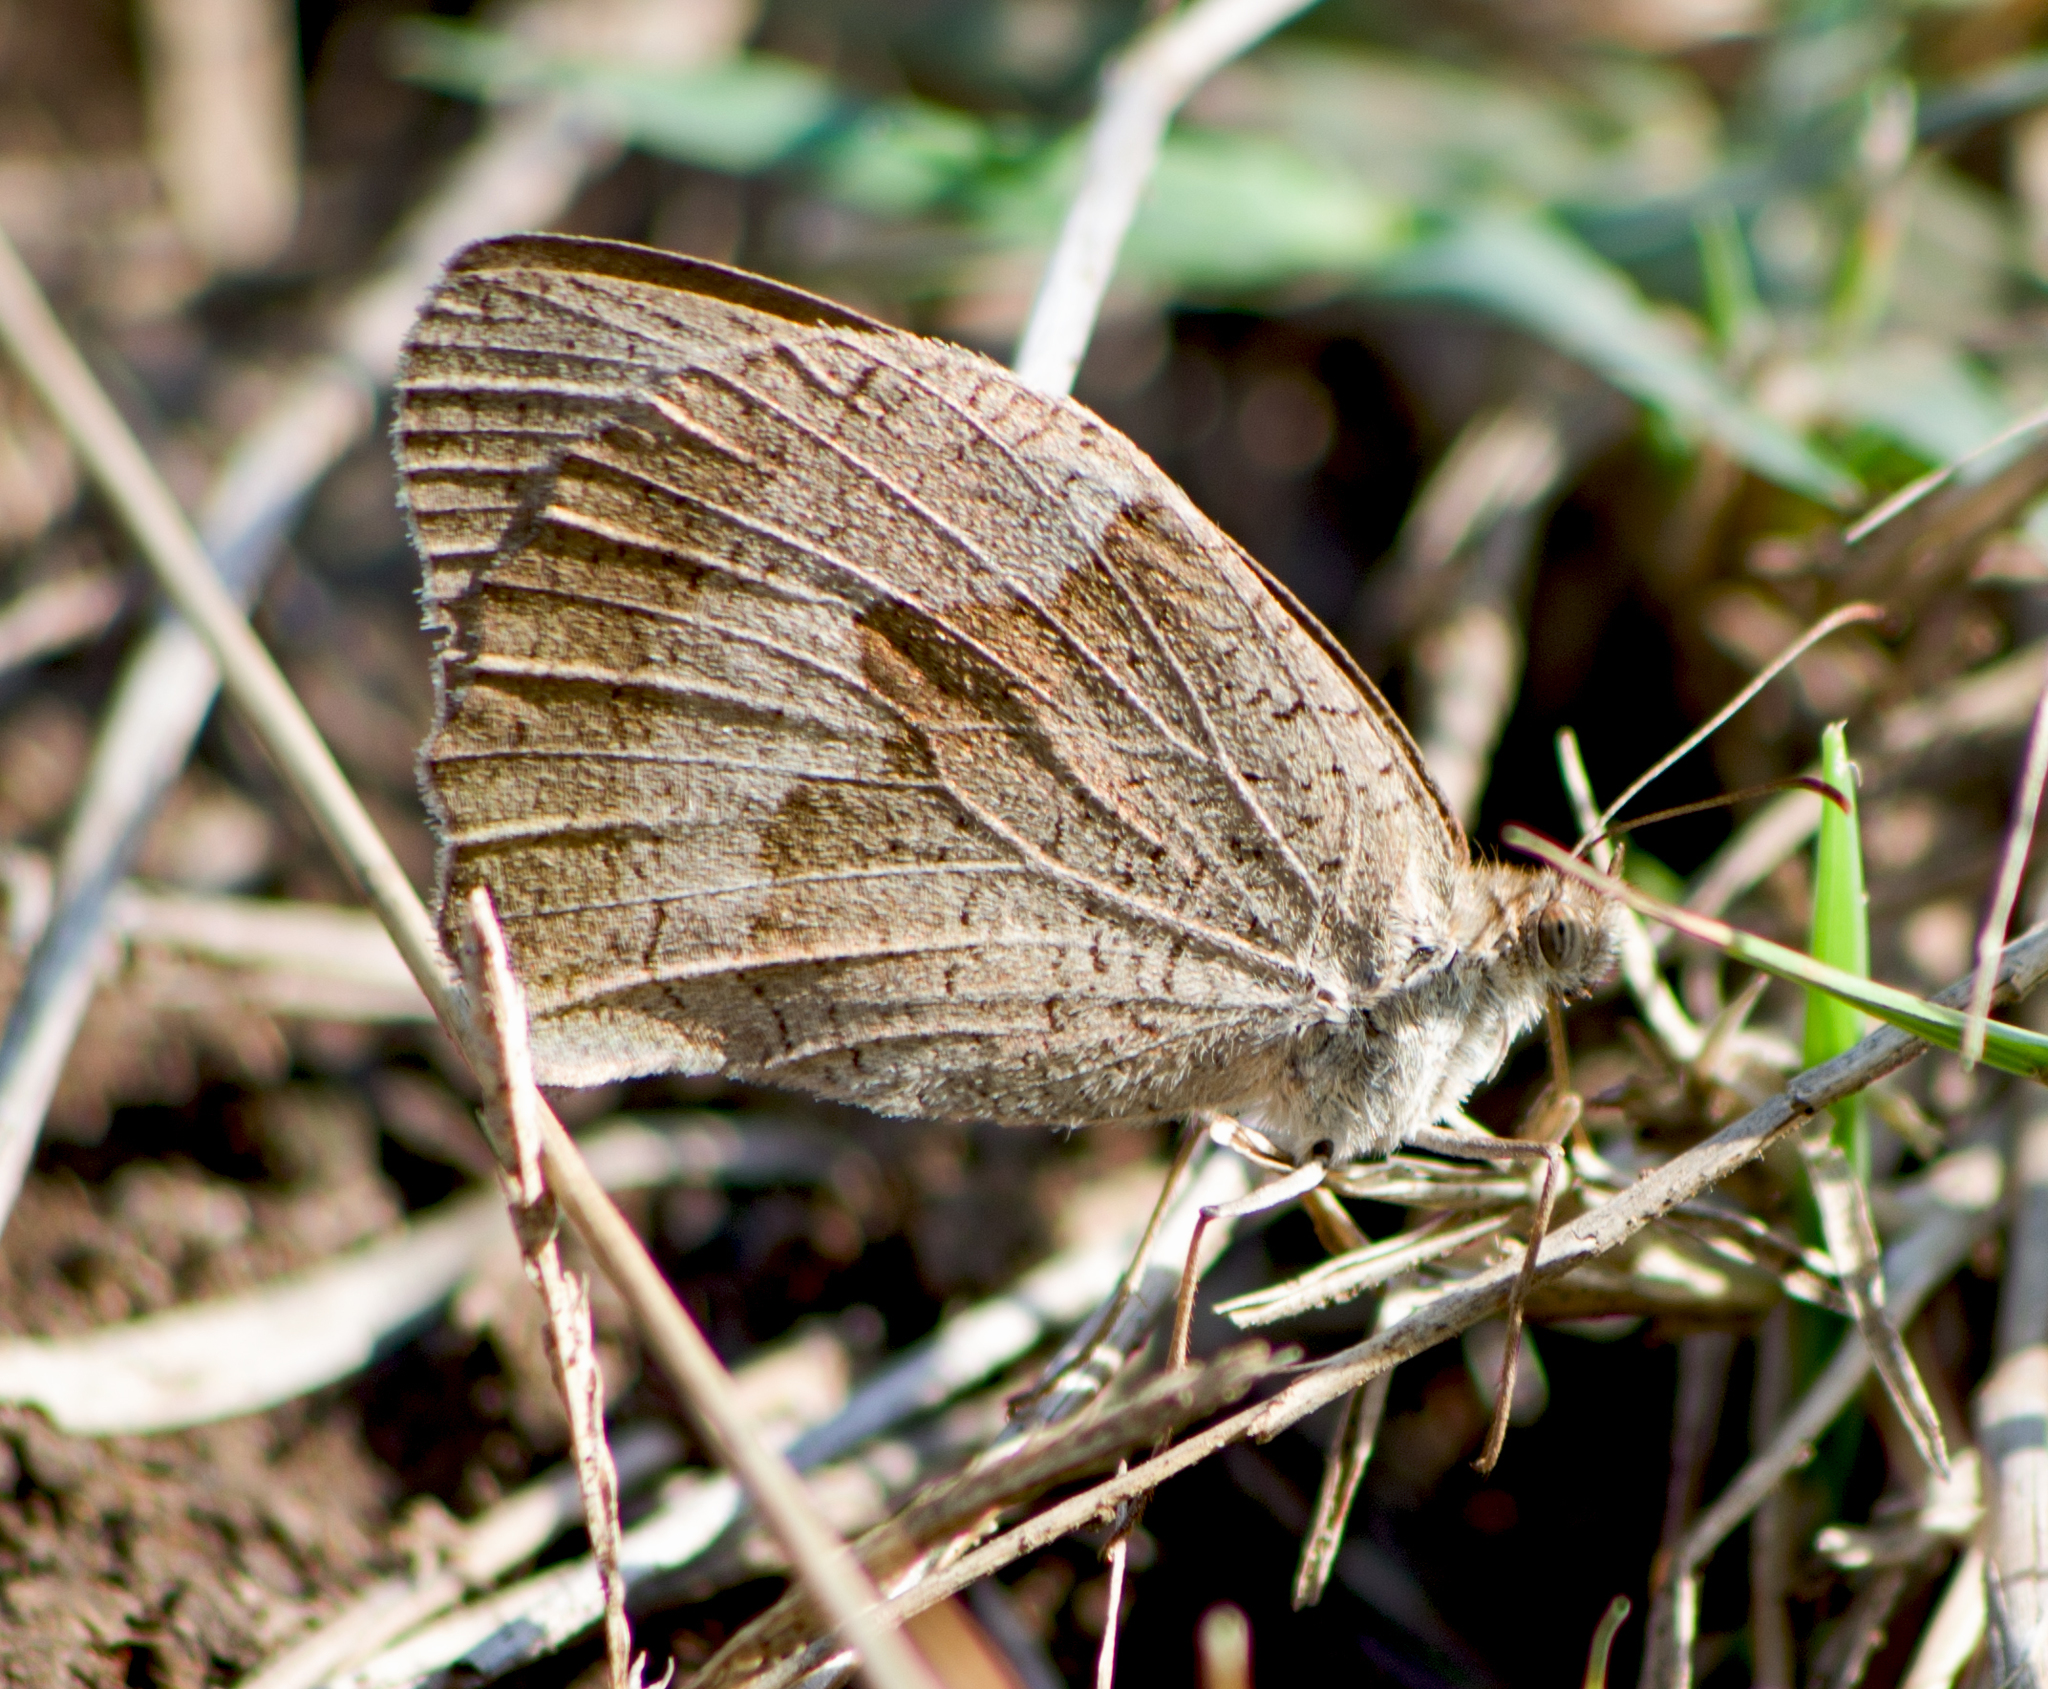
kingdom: Animalia
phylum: Arthropoda
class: Insecta
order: Lepidoptera
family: Nymphalidae
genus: Maniola
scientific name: Maniola jurtina
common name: Meadow brown
